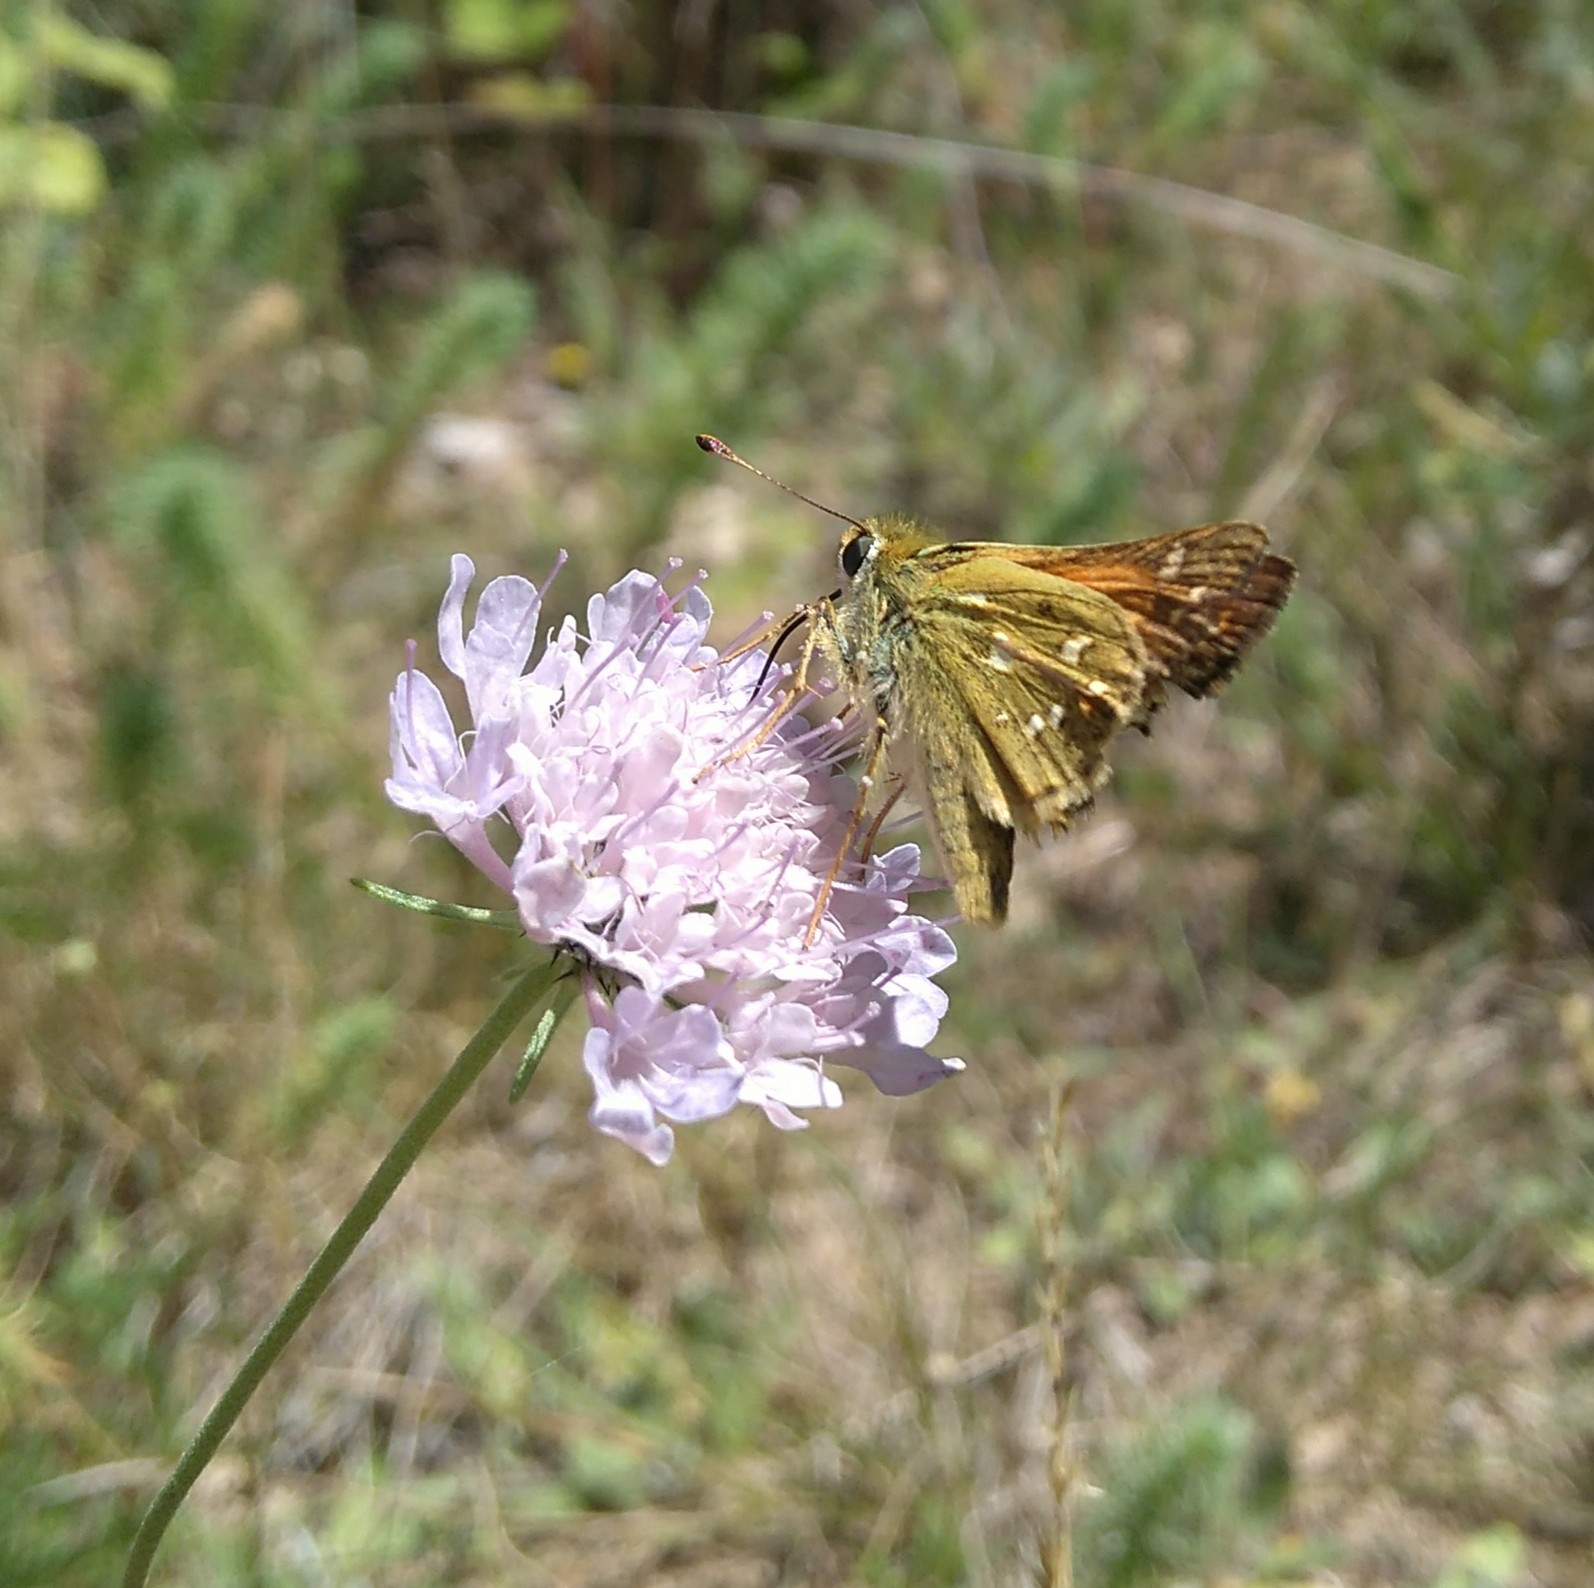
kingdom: Animalia
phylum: Arthropoda
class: Insecta
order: Lepidoptera
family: Hesperiidae
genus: Hesperia
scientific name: Hesperia comma
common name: Common branded skipper
